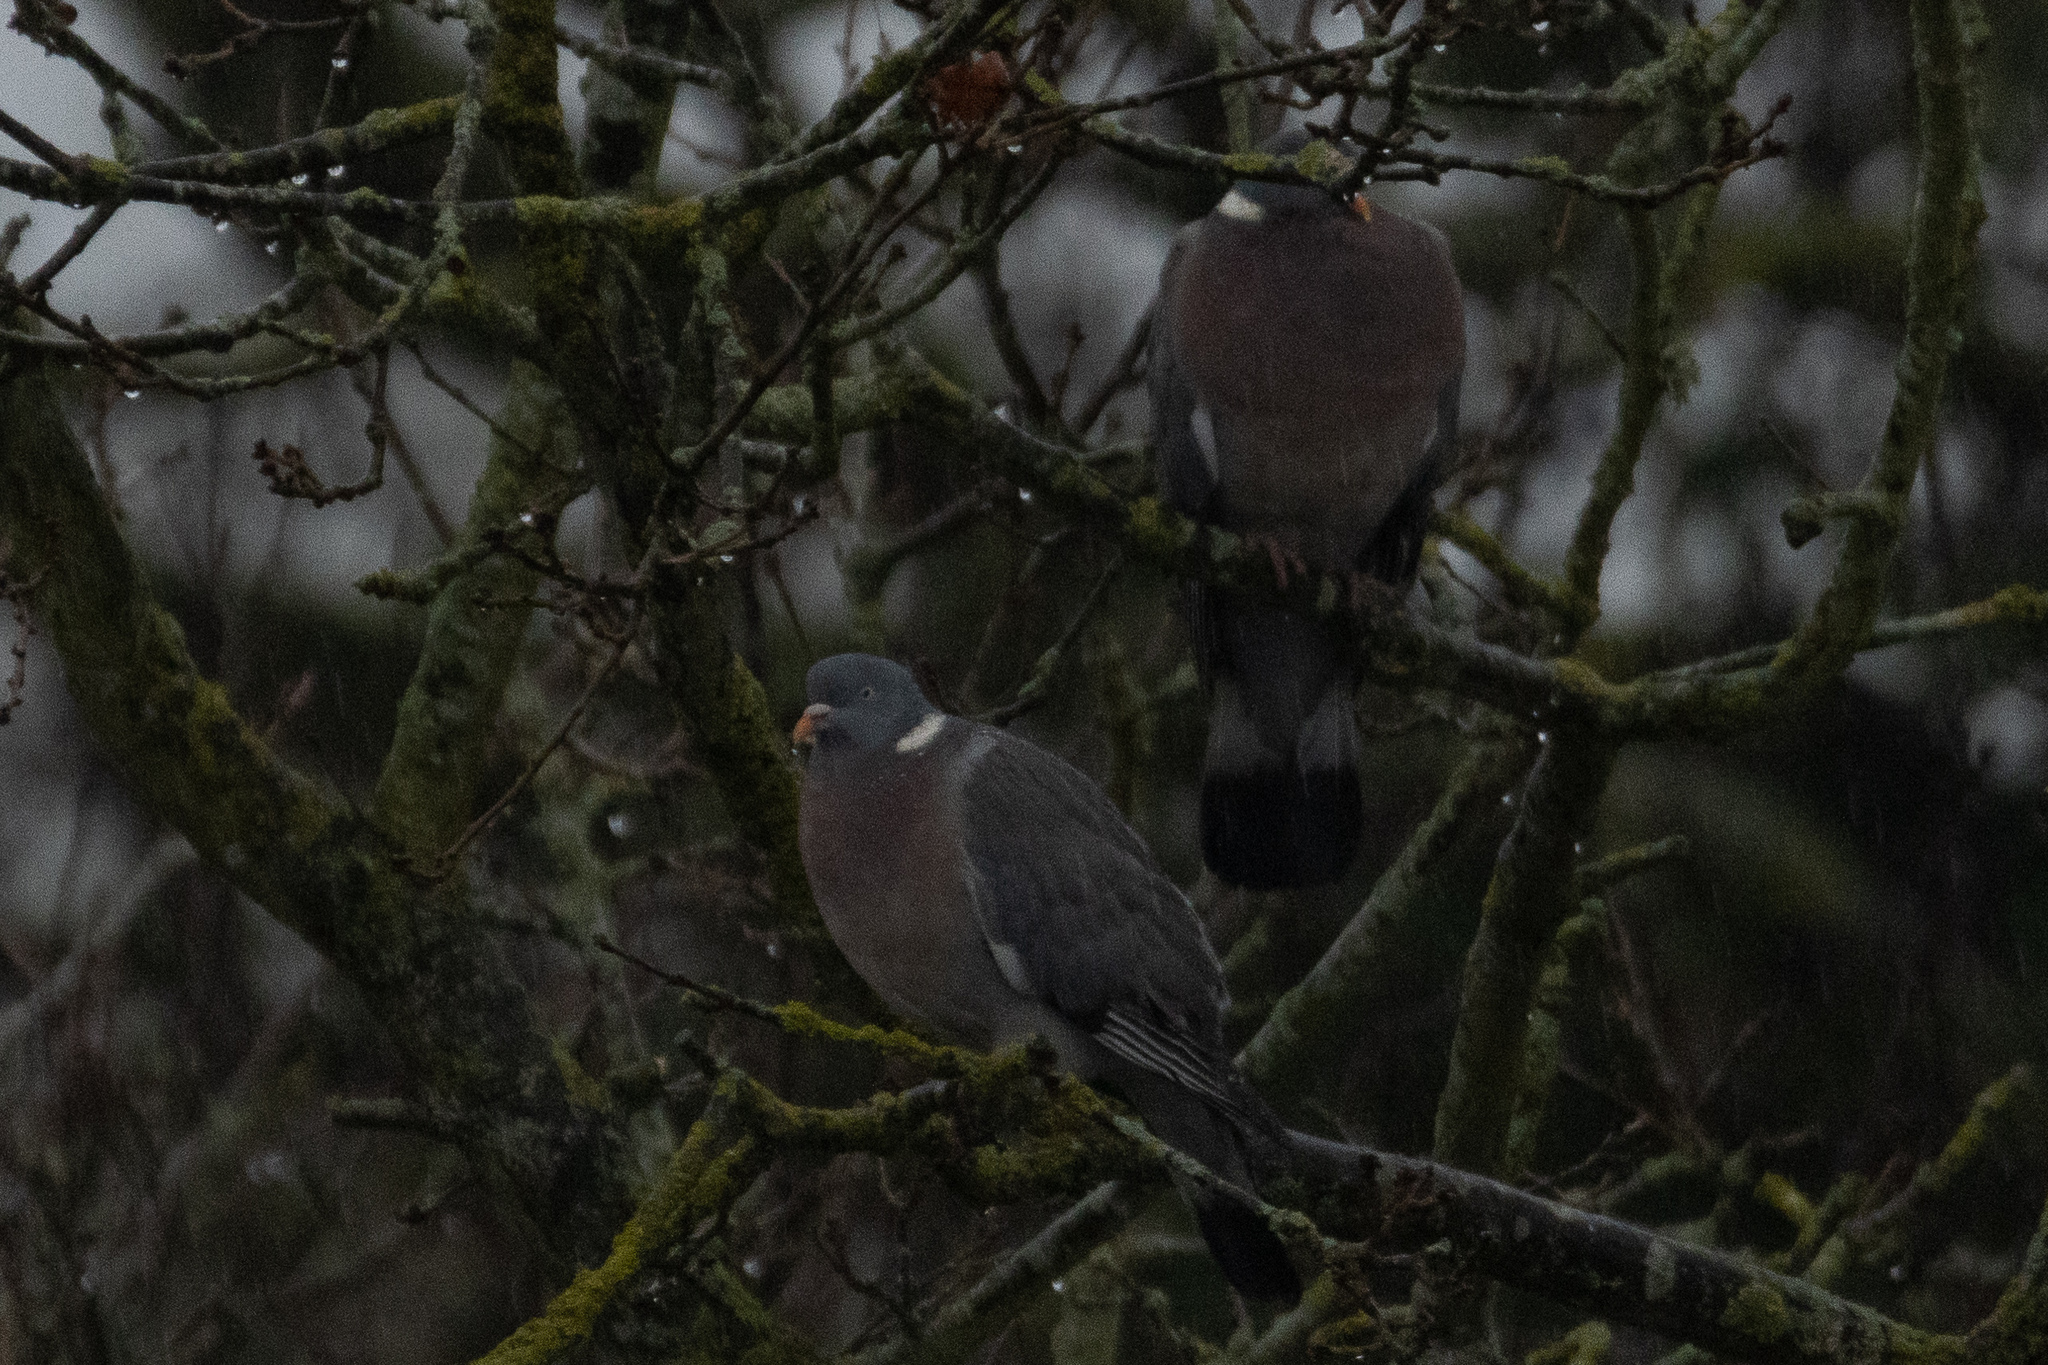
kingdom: Animalia
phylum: Chordata
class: Aves
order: Columbiformes
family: Columbidae
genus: Columba
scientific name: Columba palumbus
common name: Common wood pigeon
